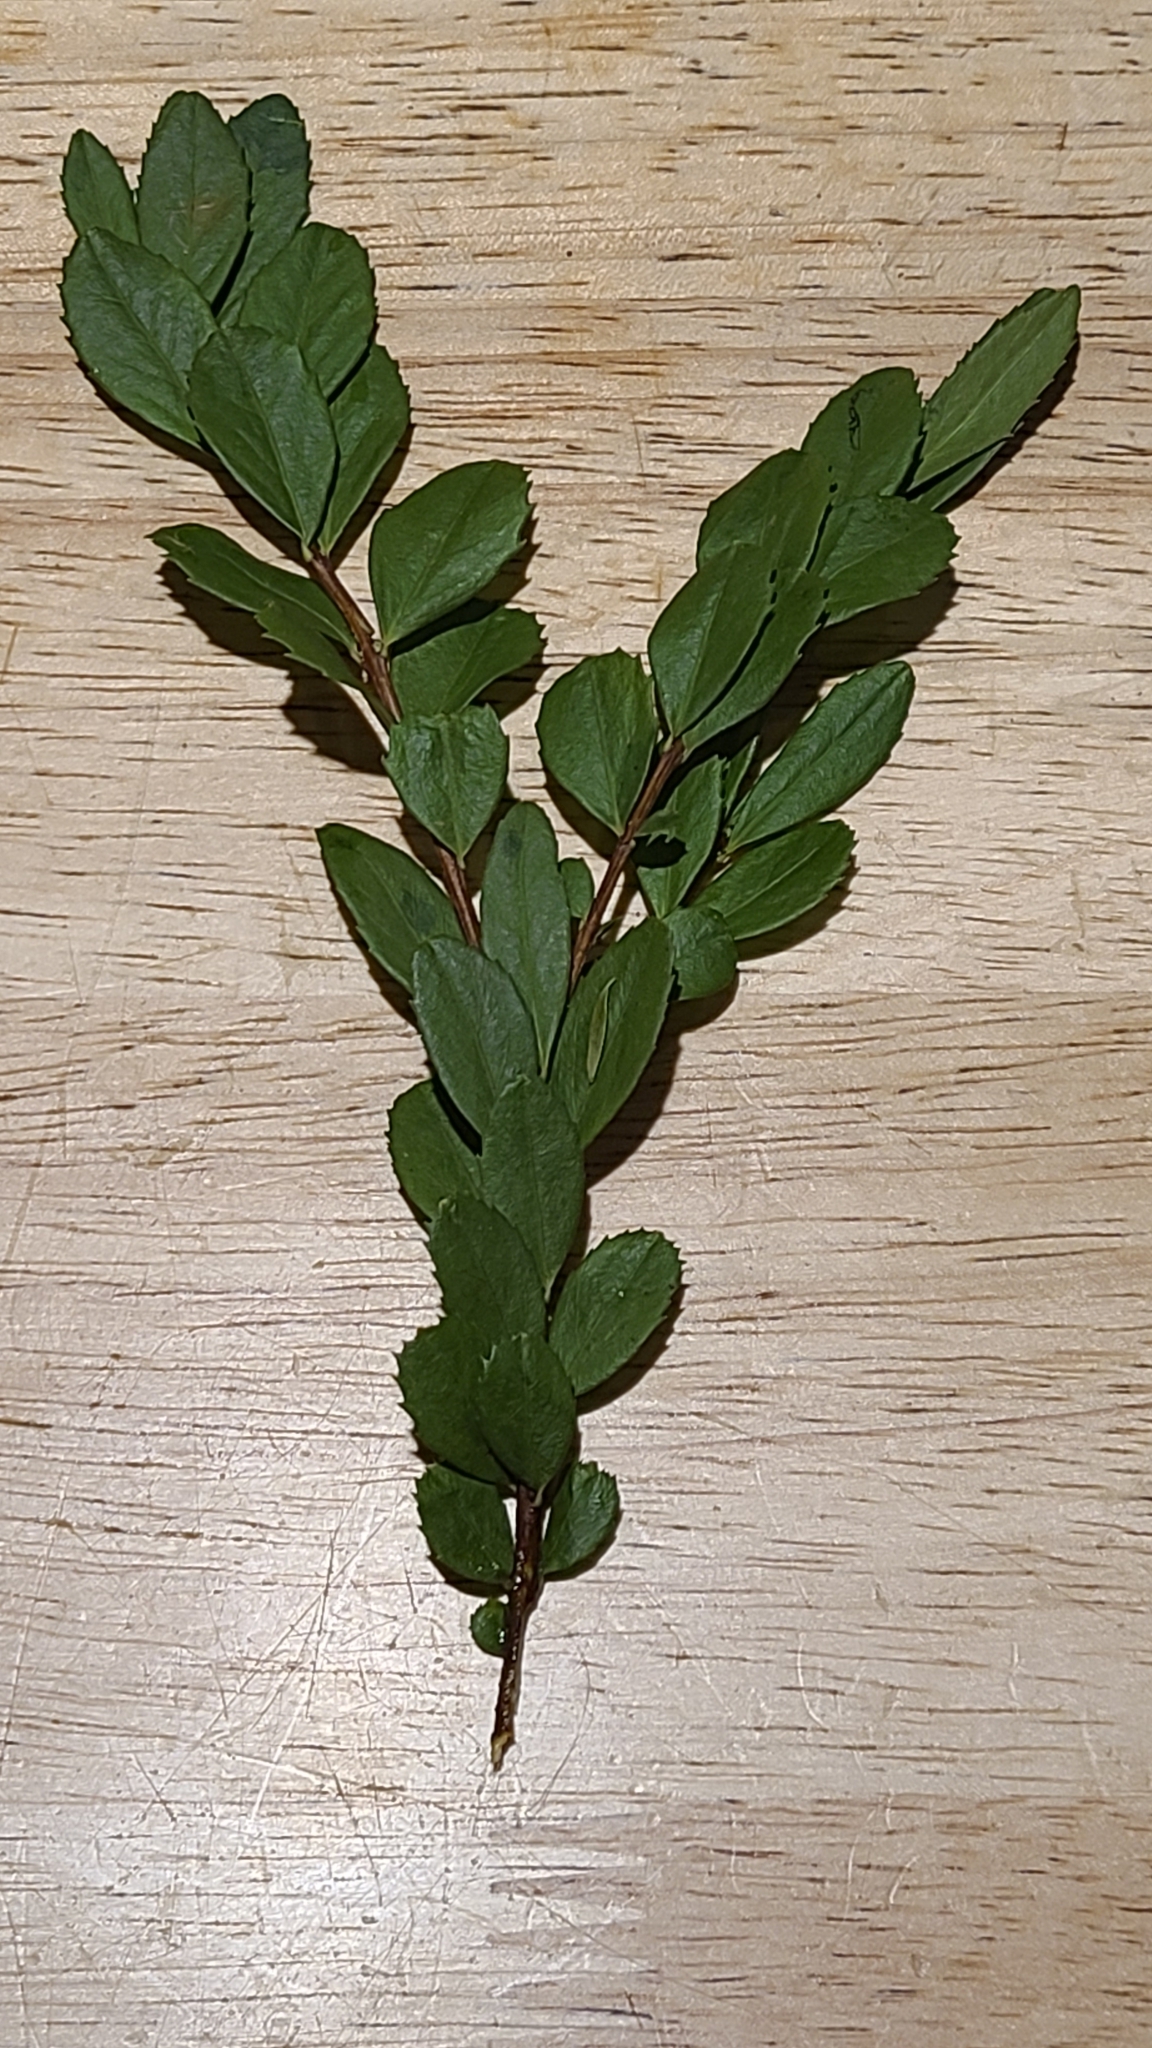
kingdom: Plantae
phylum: Tracheophyta
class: Magnoliopsida
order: Celastrales
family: Celastraceae
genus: Paxistima
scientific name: Paxistima myrsinites
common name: Mountain-lover
